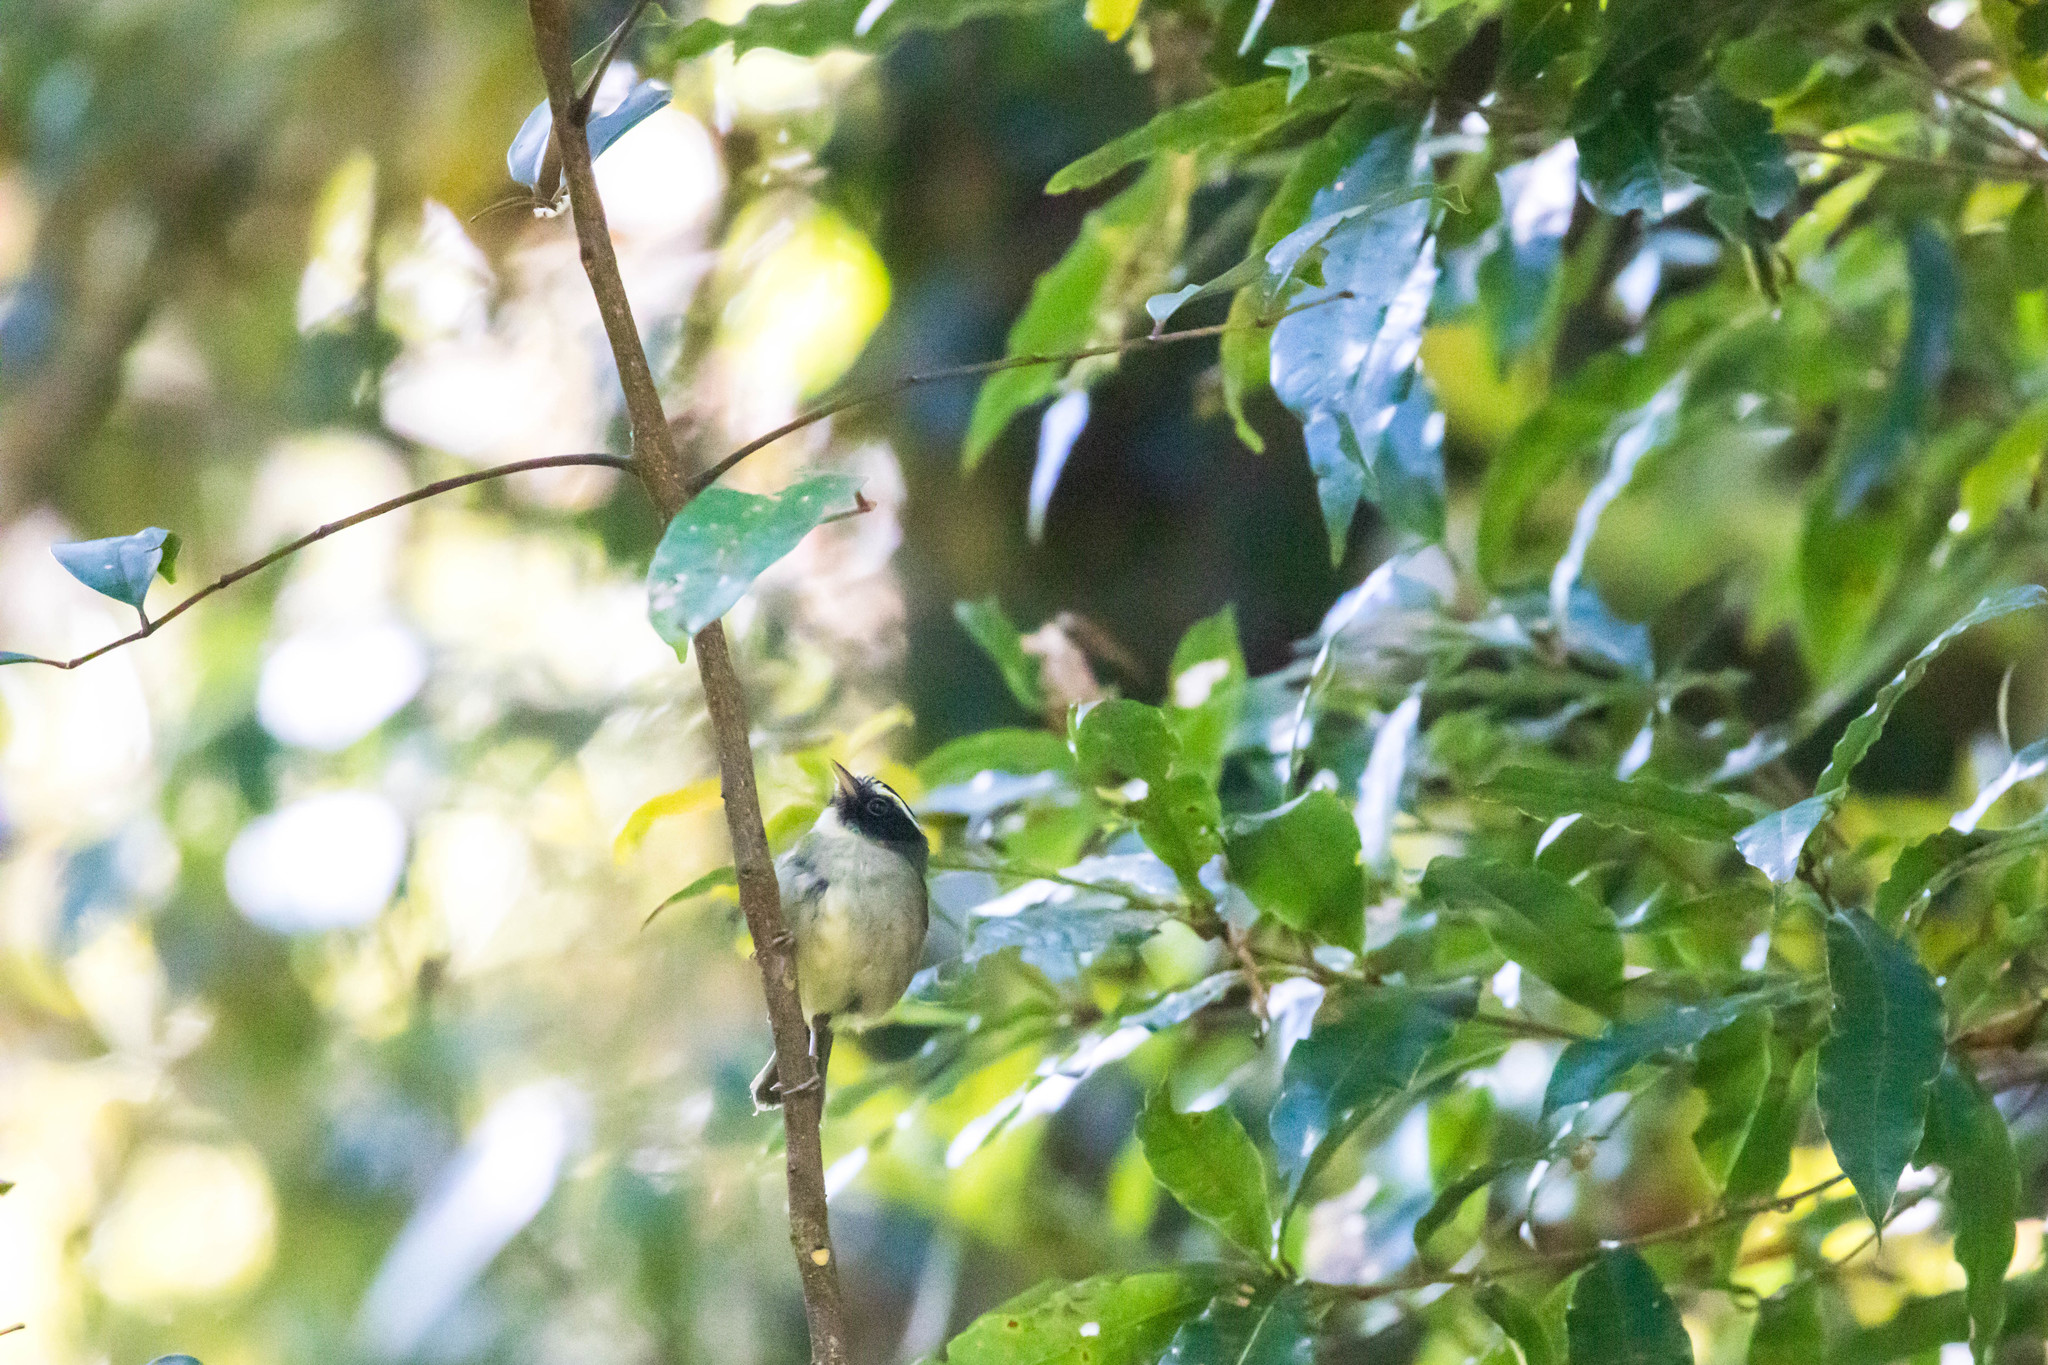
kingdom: Animalia
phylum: Chordata
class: Aves
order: Passeriformes
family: Parulidae
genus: Basileuterus
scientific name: Basileuterus melanogenys
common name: Black-cheeked warbler
